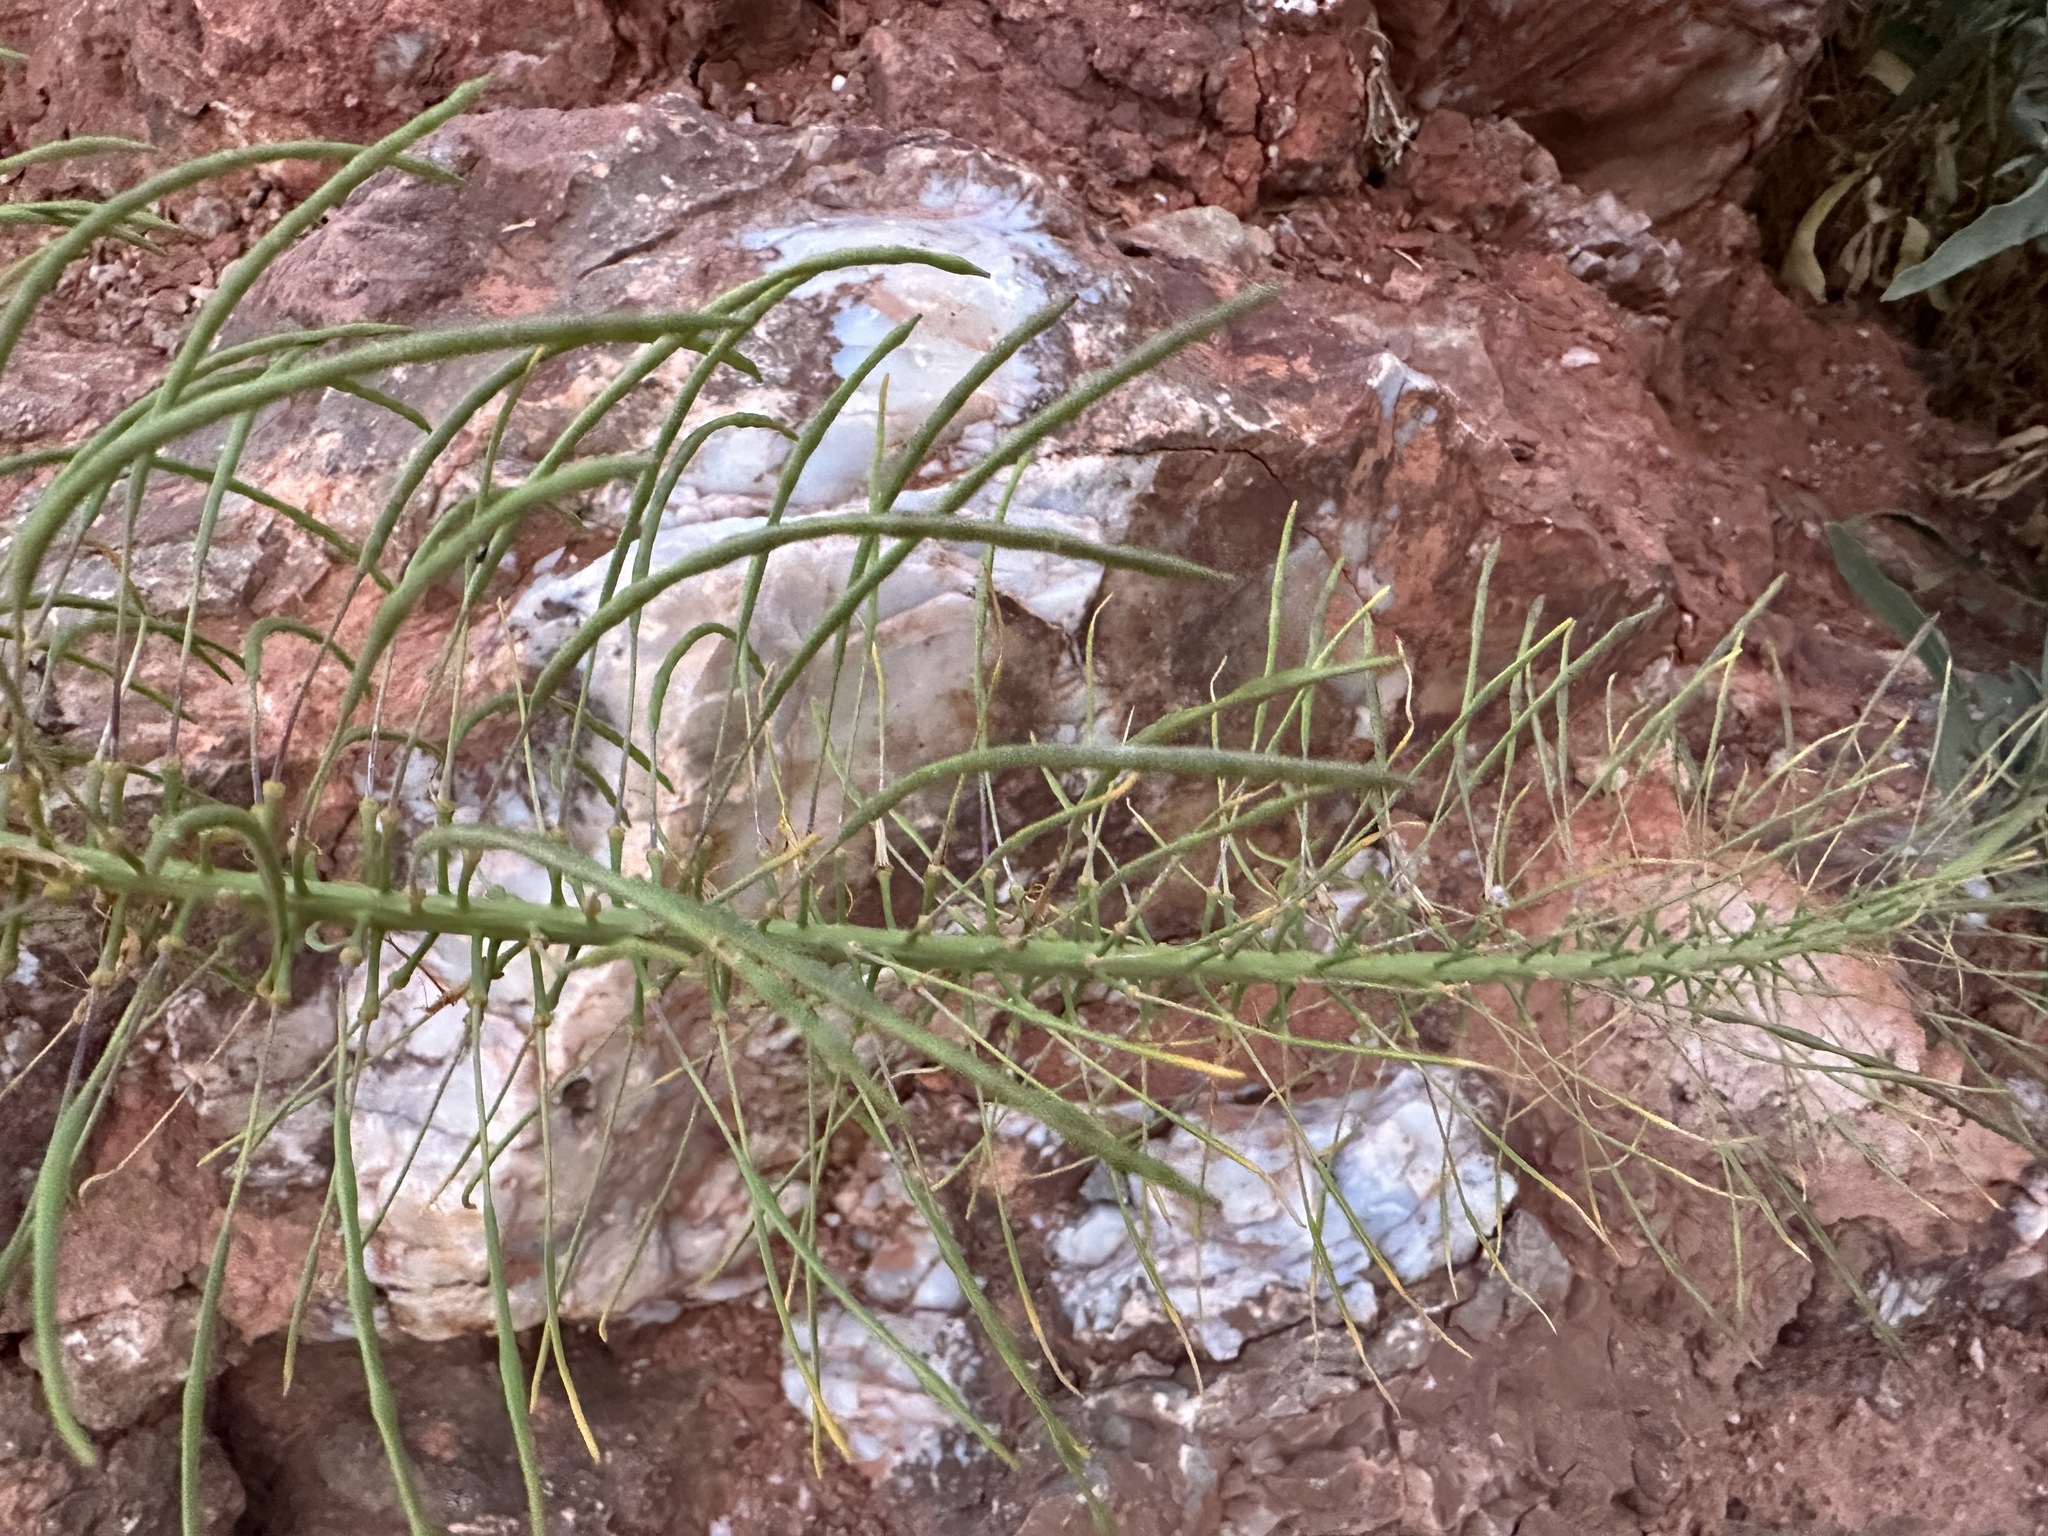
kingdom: Plantae
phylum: Tracheophyta
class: Magnoliopsida
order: Brassicales
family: Brassicaceae
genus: Stanleya
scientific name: Stanleya pinnata
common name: Prince's-plume
